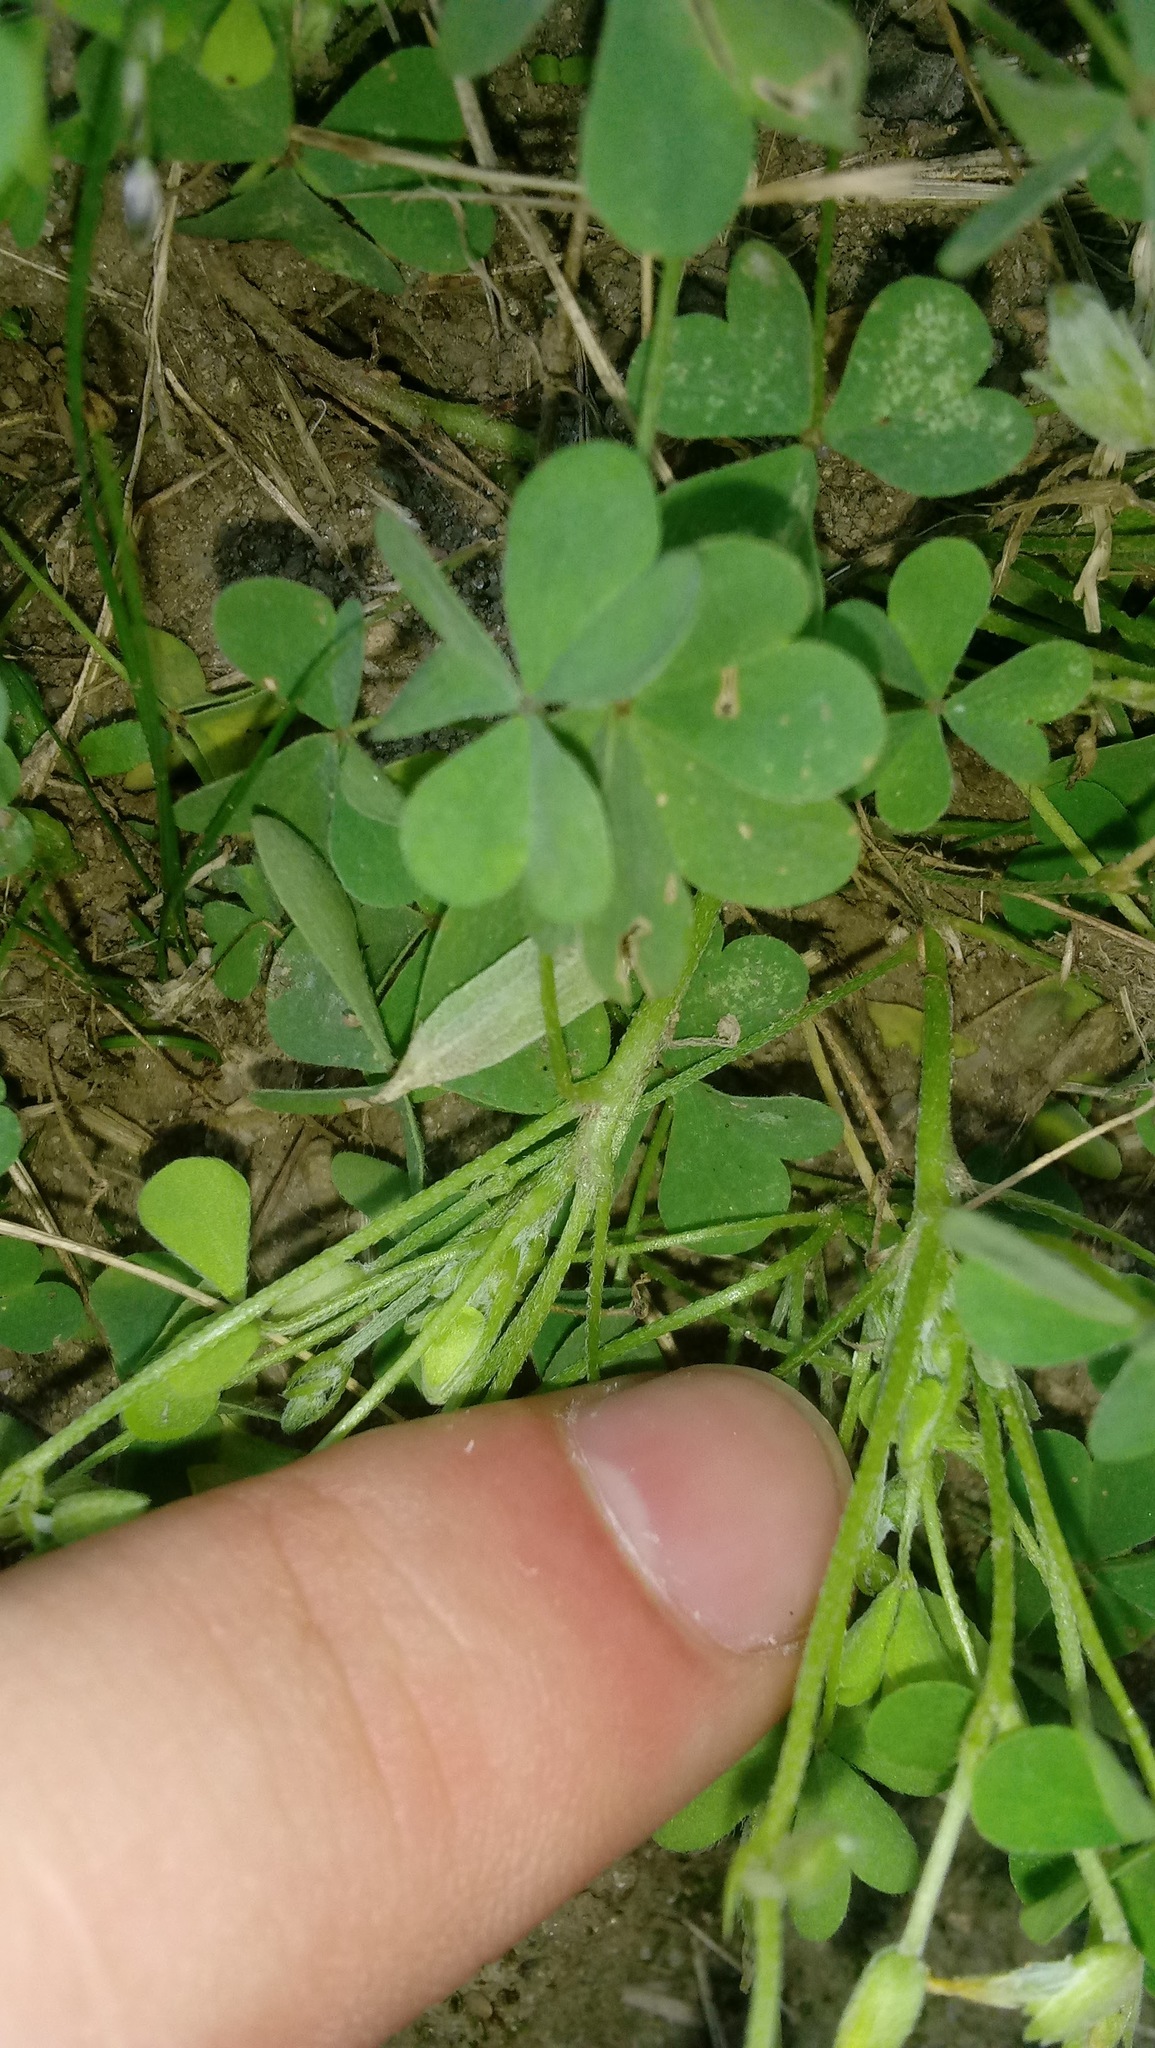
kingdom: Plantae
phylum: Tracheophyta
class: Magnoliopsida
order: Oxalidales
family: Oxalidaceae
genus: Oxalis
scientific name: Oxalis dillenii
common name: Sussex yellow-sorrel
